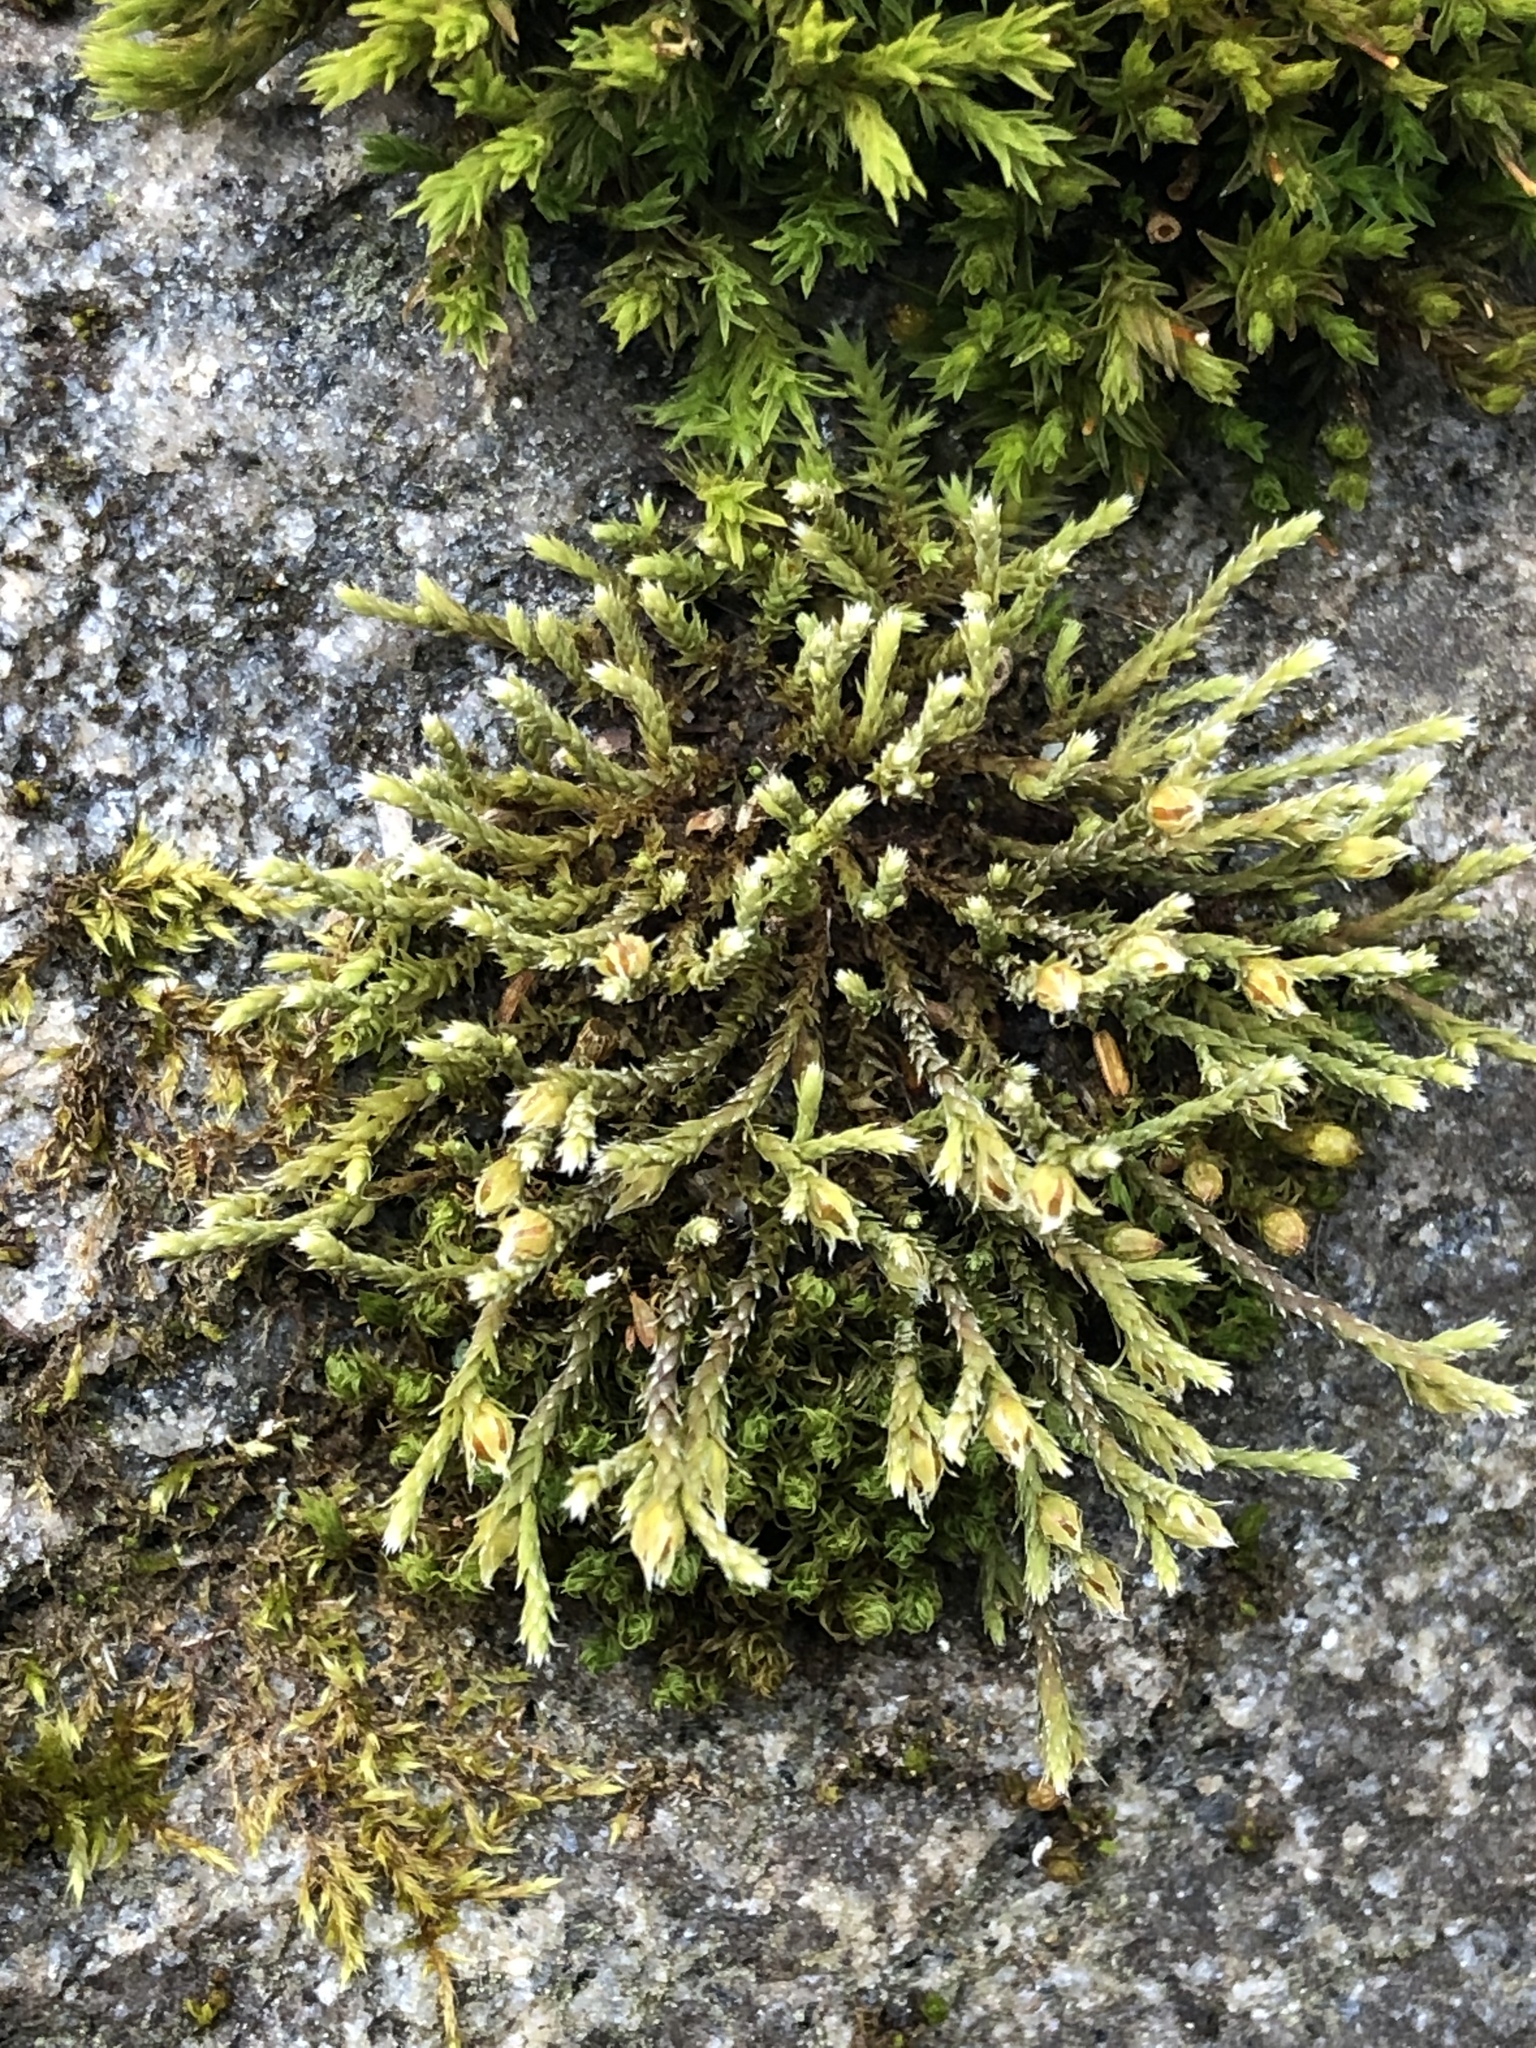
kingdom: Plantae
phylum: Bryophyta
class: Bryopsida
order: Hedwigiales
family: Hedwigiaceae
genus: Hedwigia
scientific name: Hedwigia ciliata
